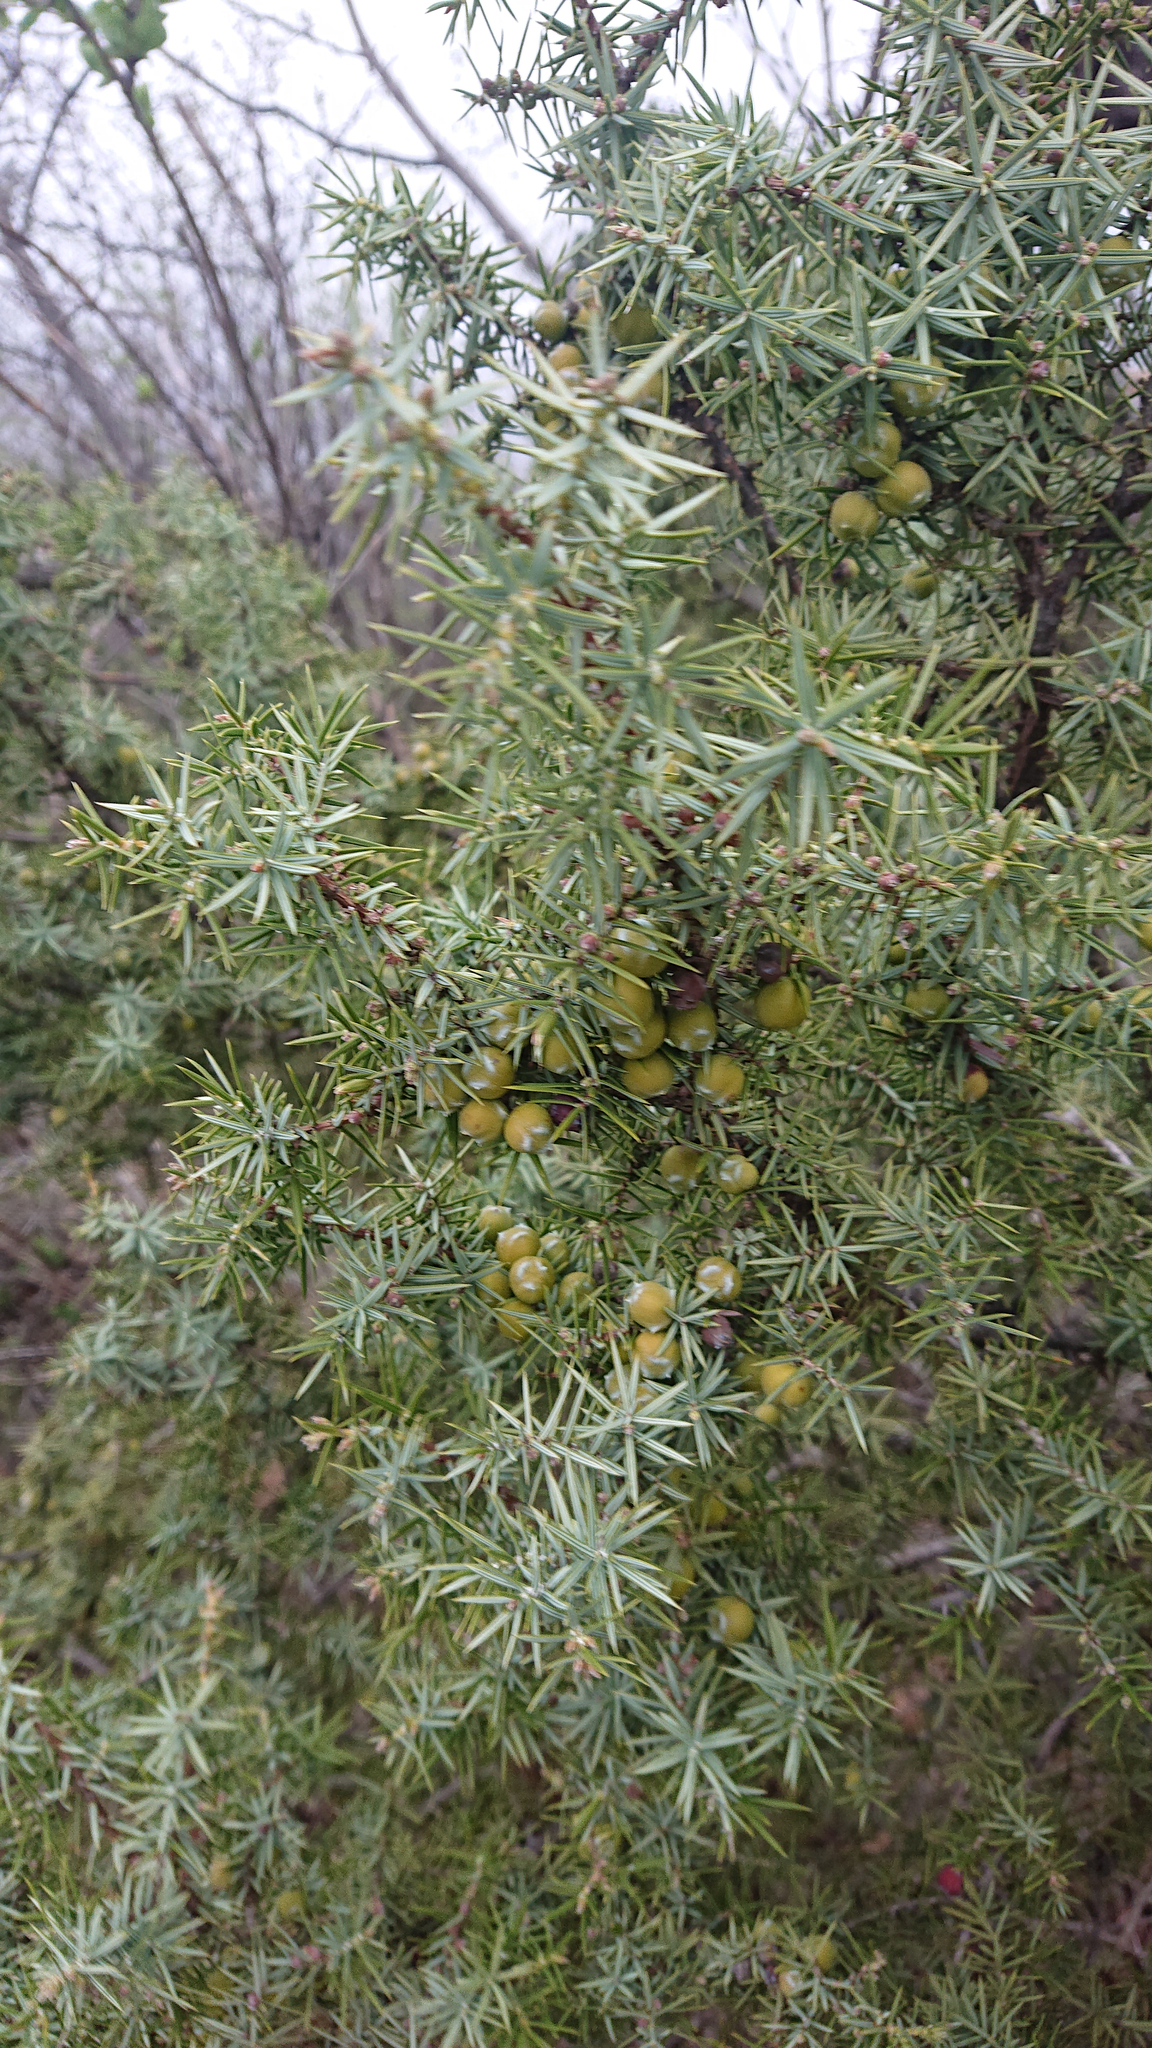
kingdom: Plantae
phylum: Tracheophyta
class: Pinopsida
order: Pinales
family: Cupressaceae
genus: Juniperus
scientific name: Juniperus oxycedrus
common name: Prickly juniper
